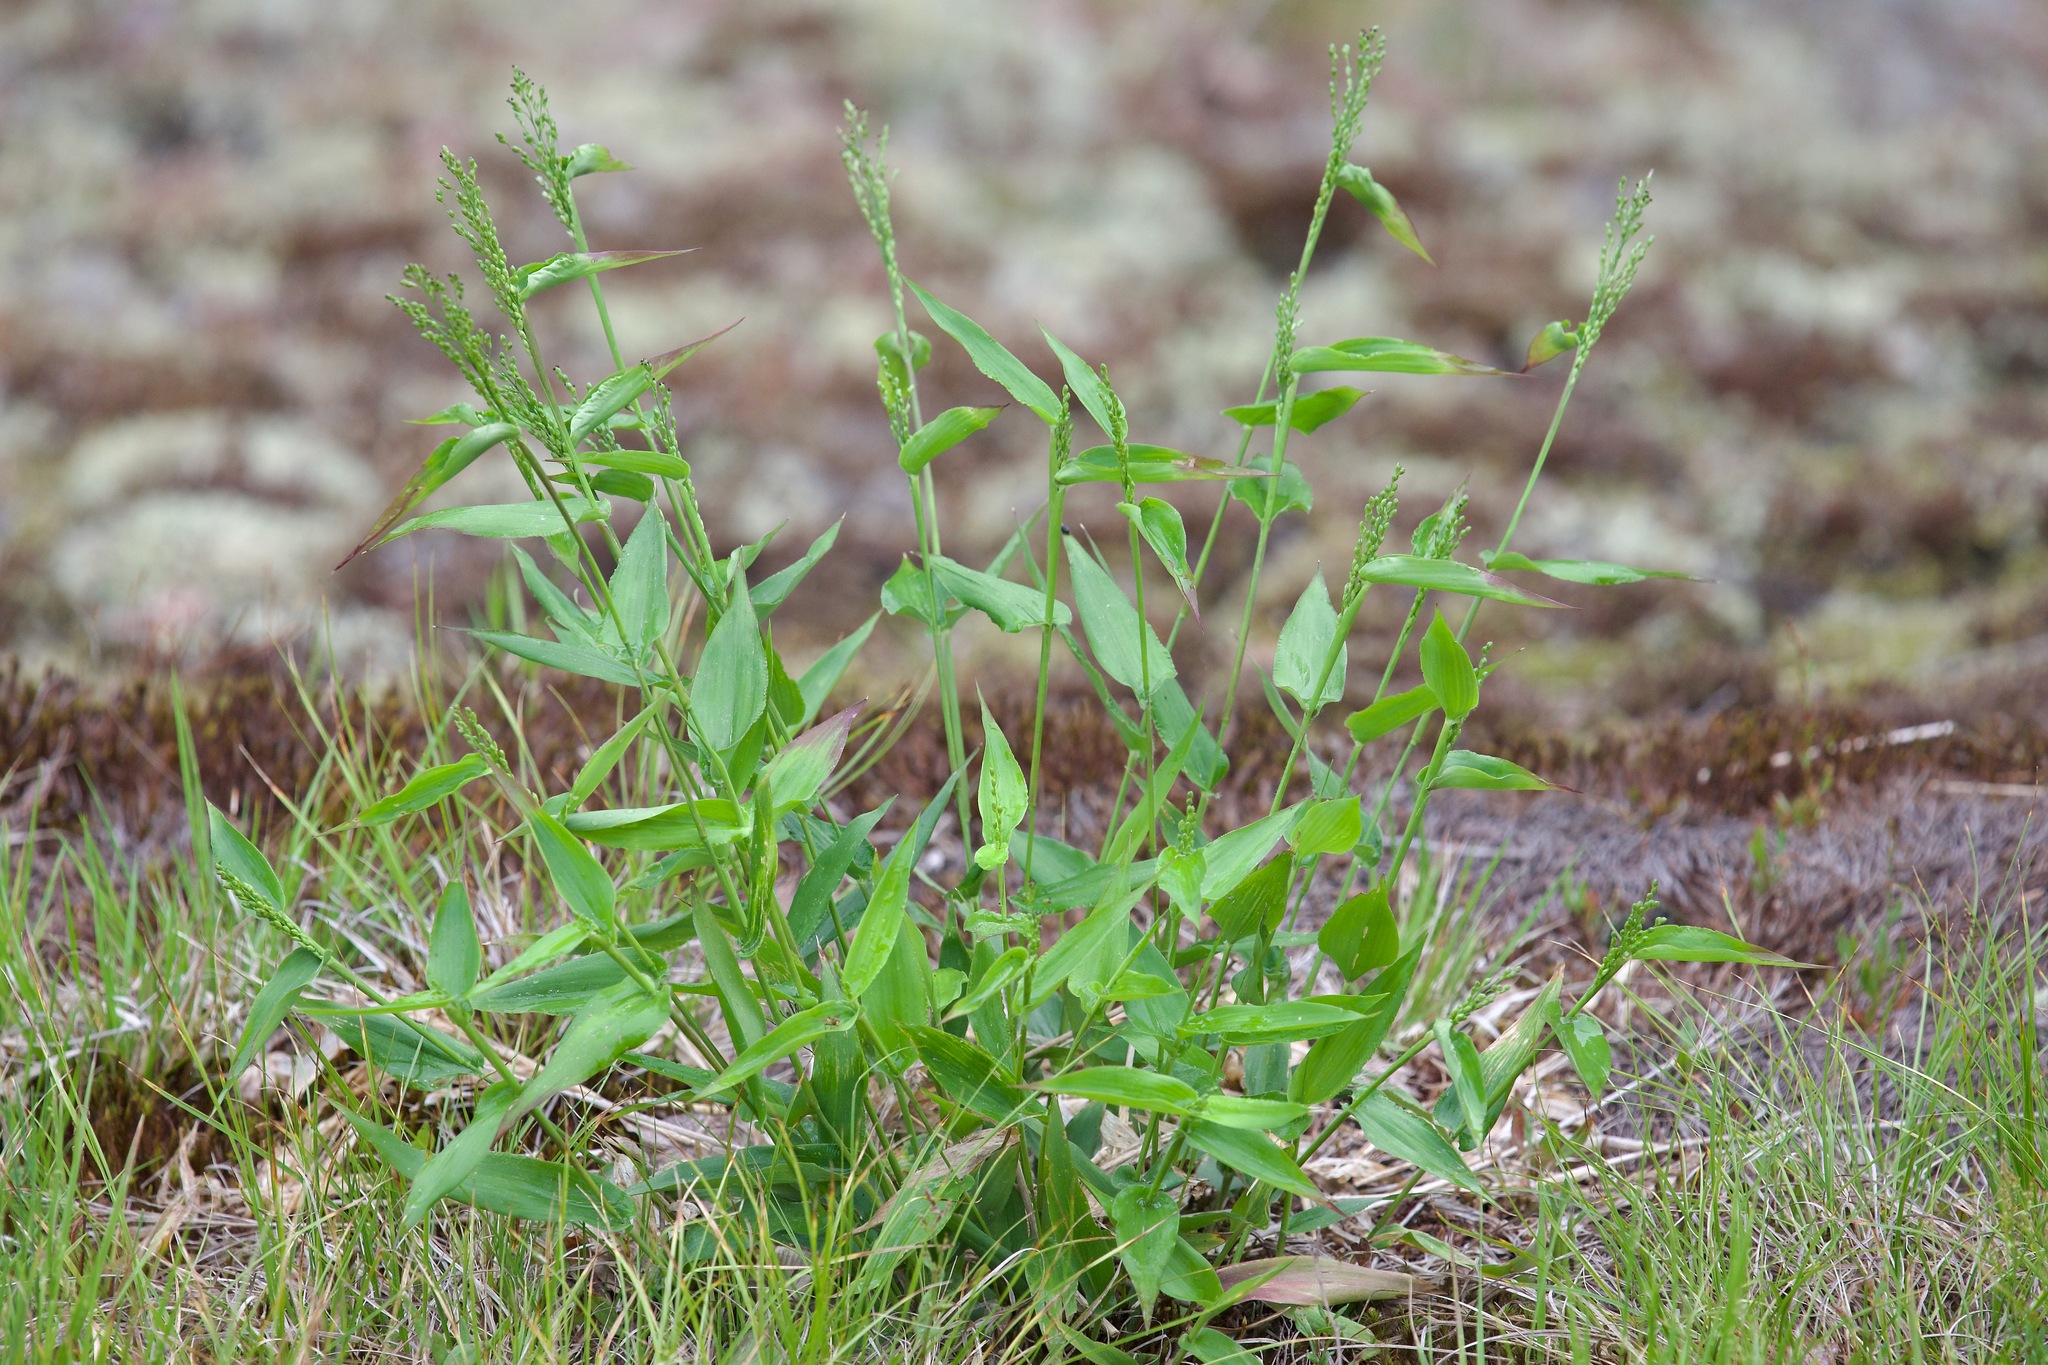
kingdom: Plantae
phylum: Tracheophyta
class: Liliopsida
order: Poales
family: Poaceae
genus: Dichanthelium
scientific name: Dichanthelium latifolium
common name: Broad-leaved panicgrass
